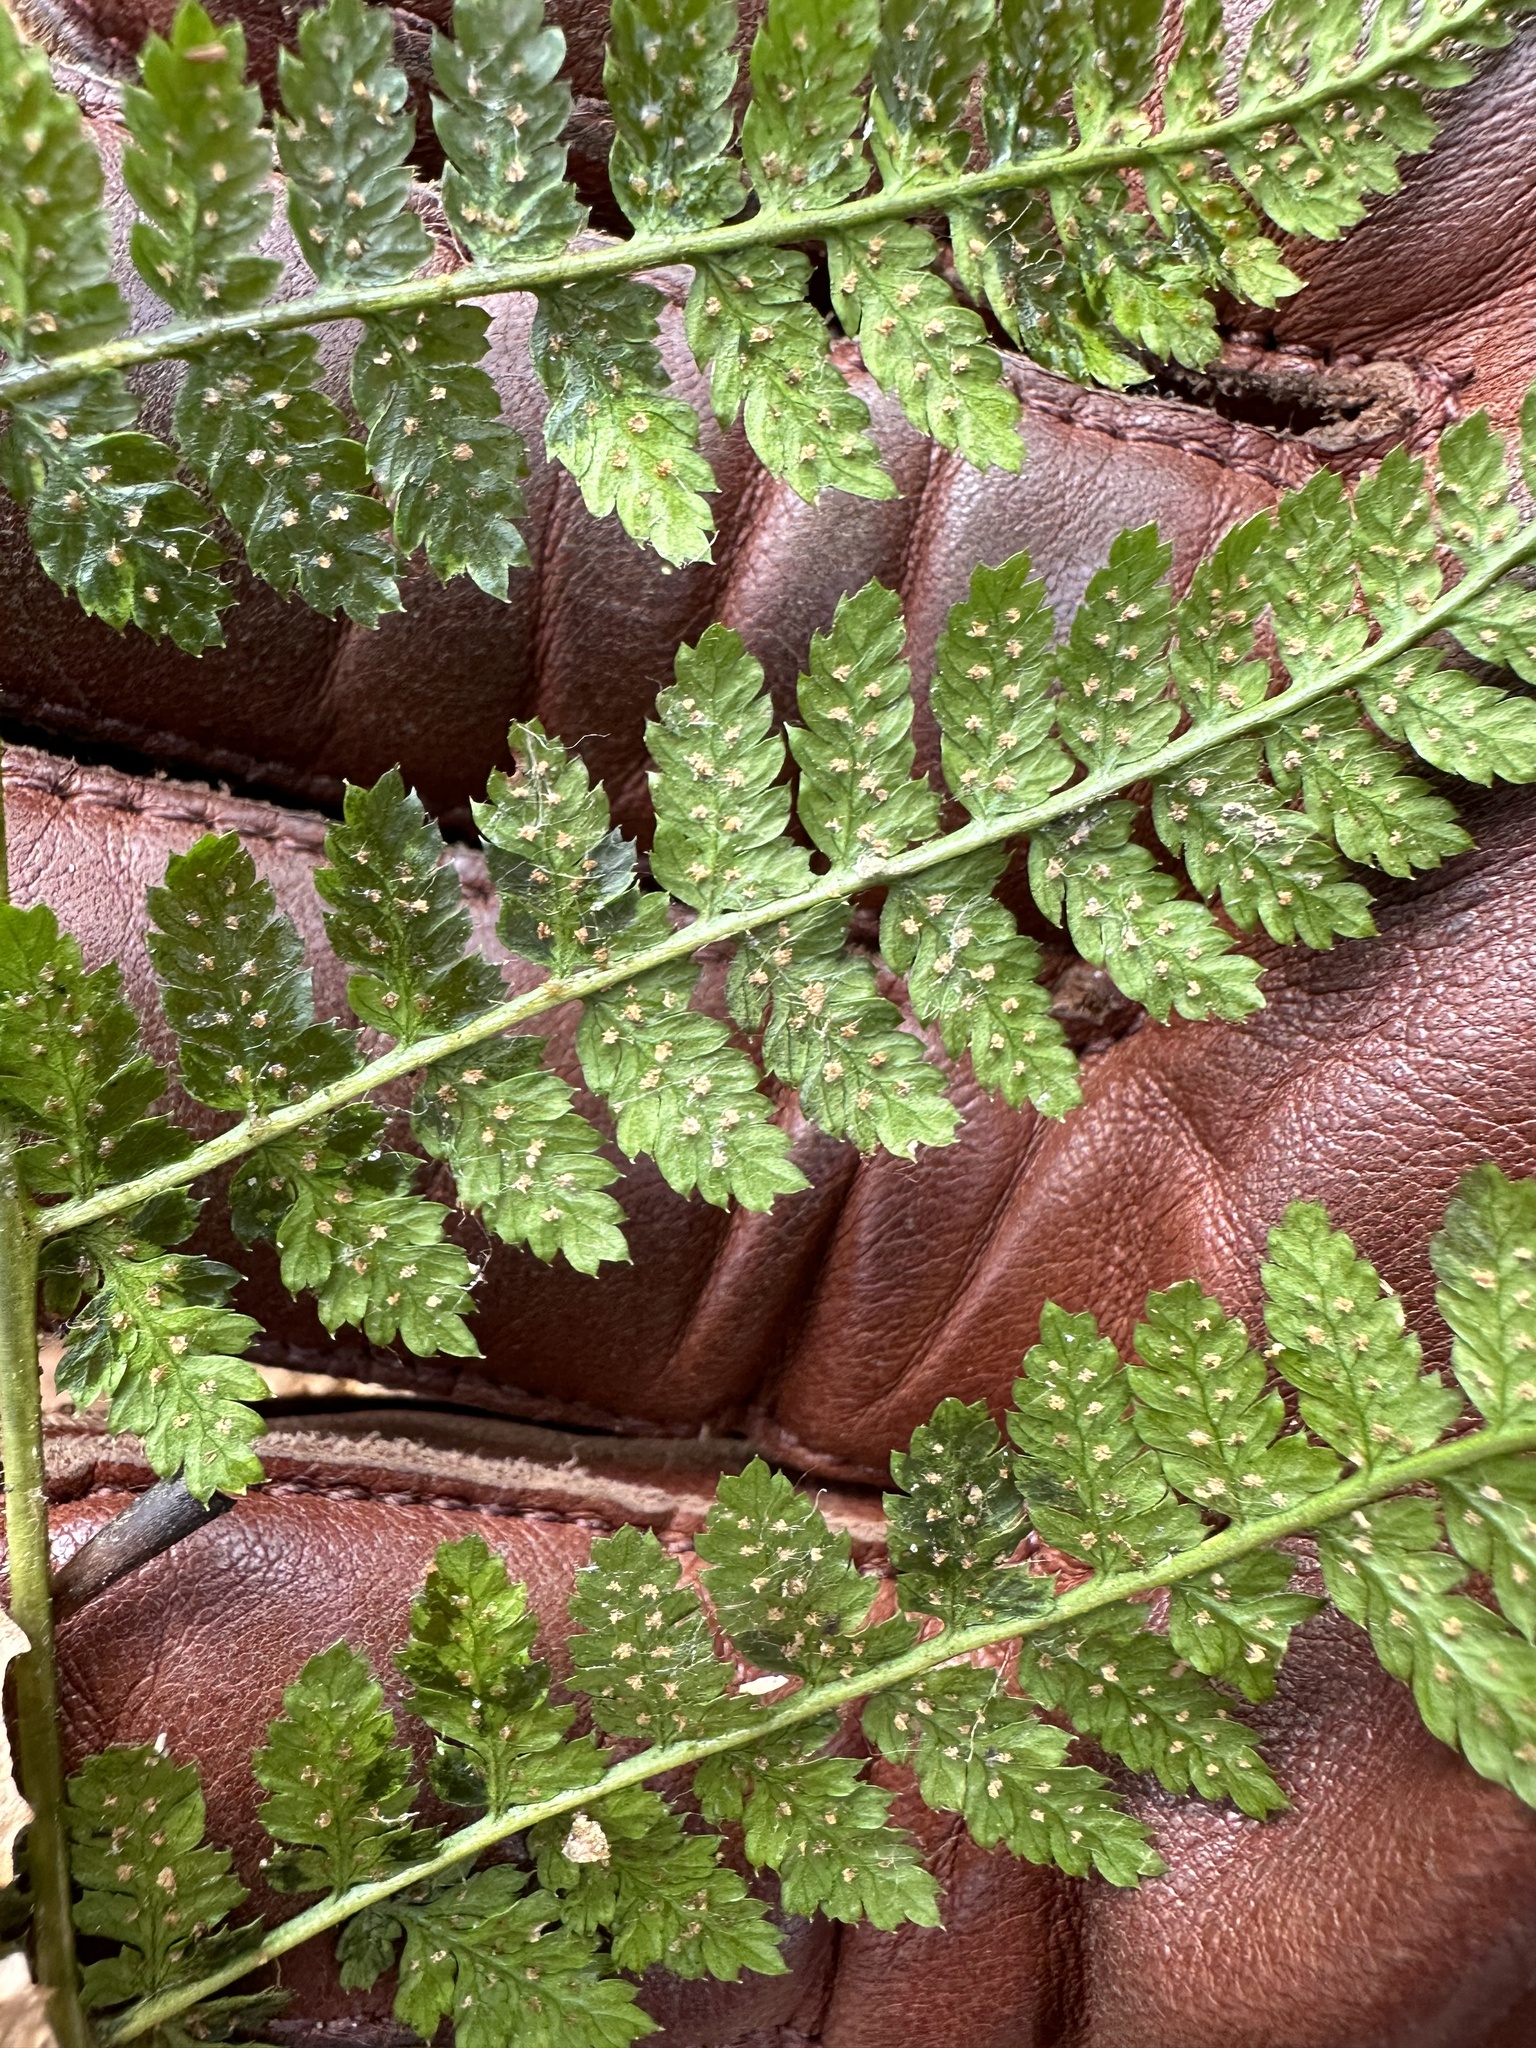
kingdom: Plantae
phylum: Tracheophyta
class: Polypodiopsida
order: Polypodiales
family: Dryopteridaceae
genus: Dryopteris
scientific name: Dryopteris intermedia
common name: Evergreen wood fern
